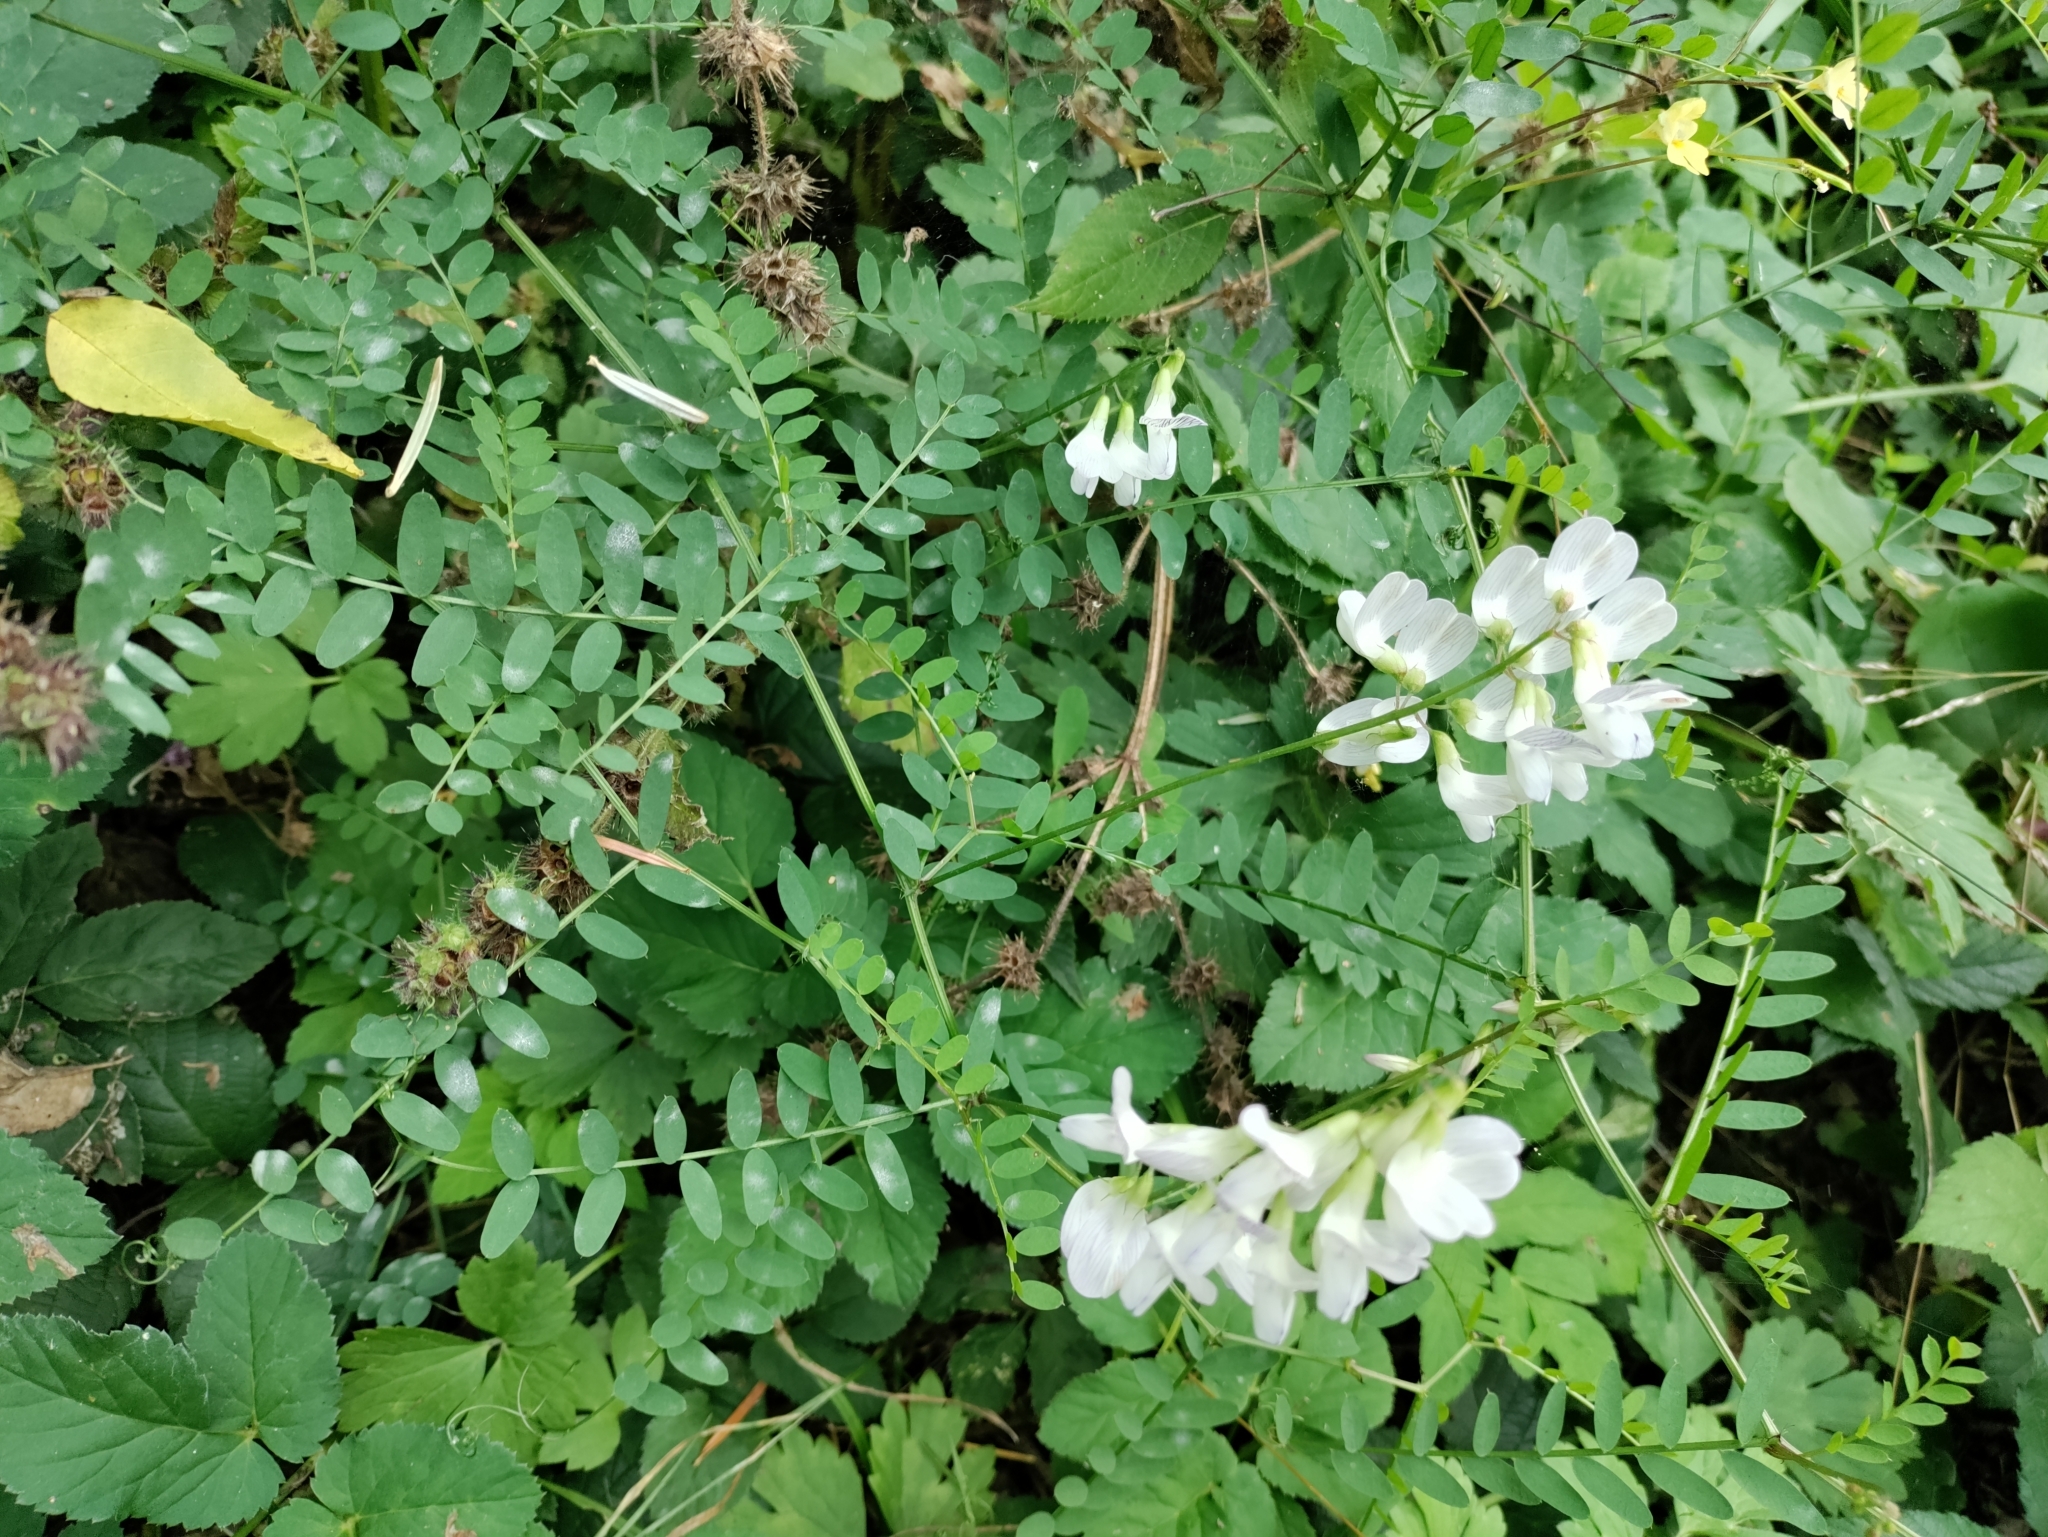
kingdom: Plantae
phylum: Tracheophyta
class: Magnoliopsida
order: Fabales
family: Fabaceae
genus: Vicia
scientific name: Vicia sylvatica
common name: Wood vetch
